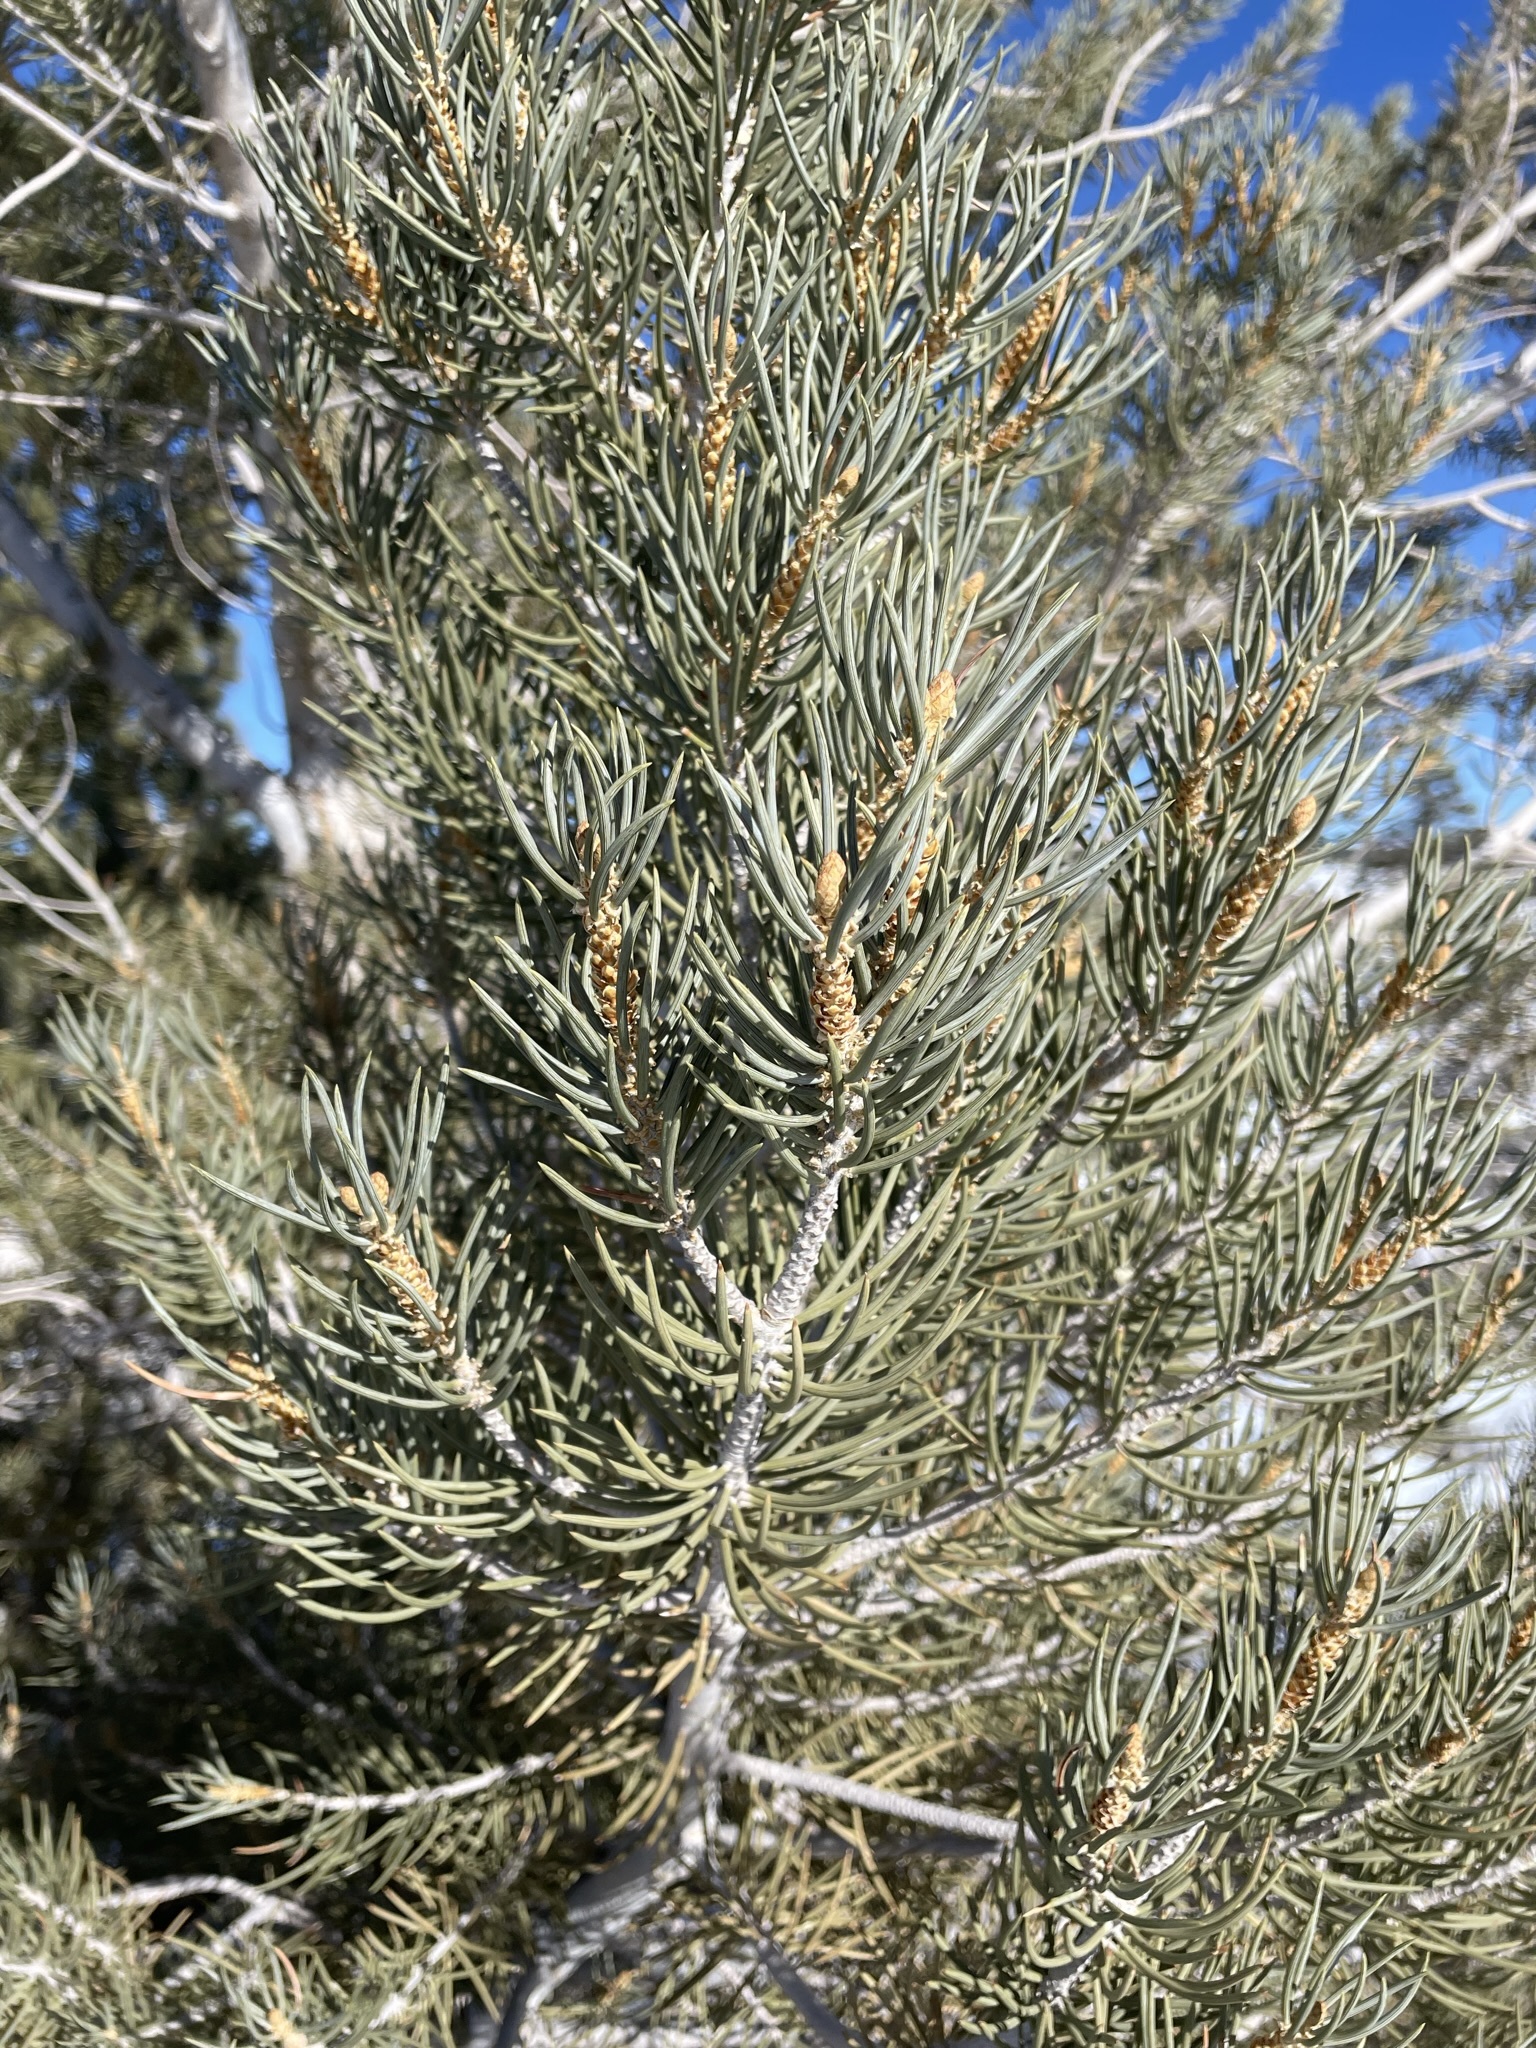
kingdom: Plantae
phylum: Tracheophyta
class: Pinopsida
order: Pinales
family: Pinaceae
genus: Pinus
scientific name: Pinus monophylla
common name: One-leaved nut pine
